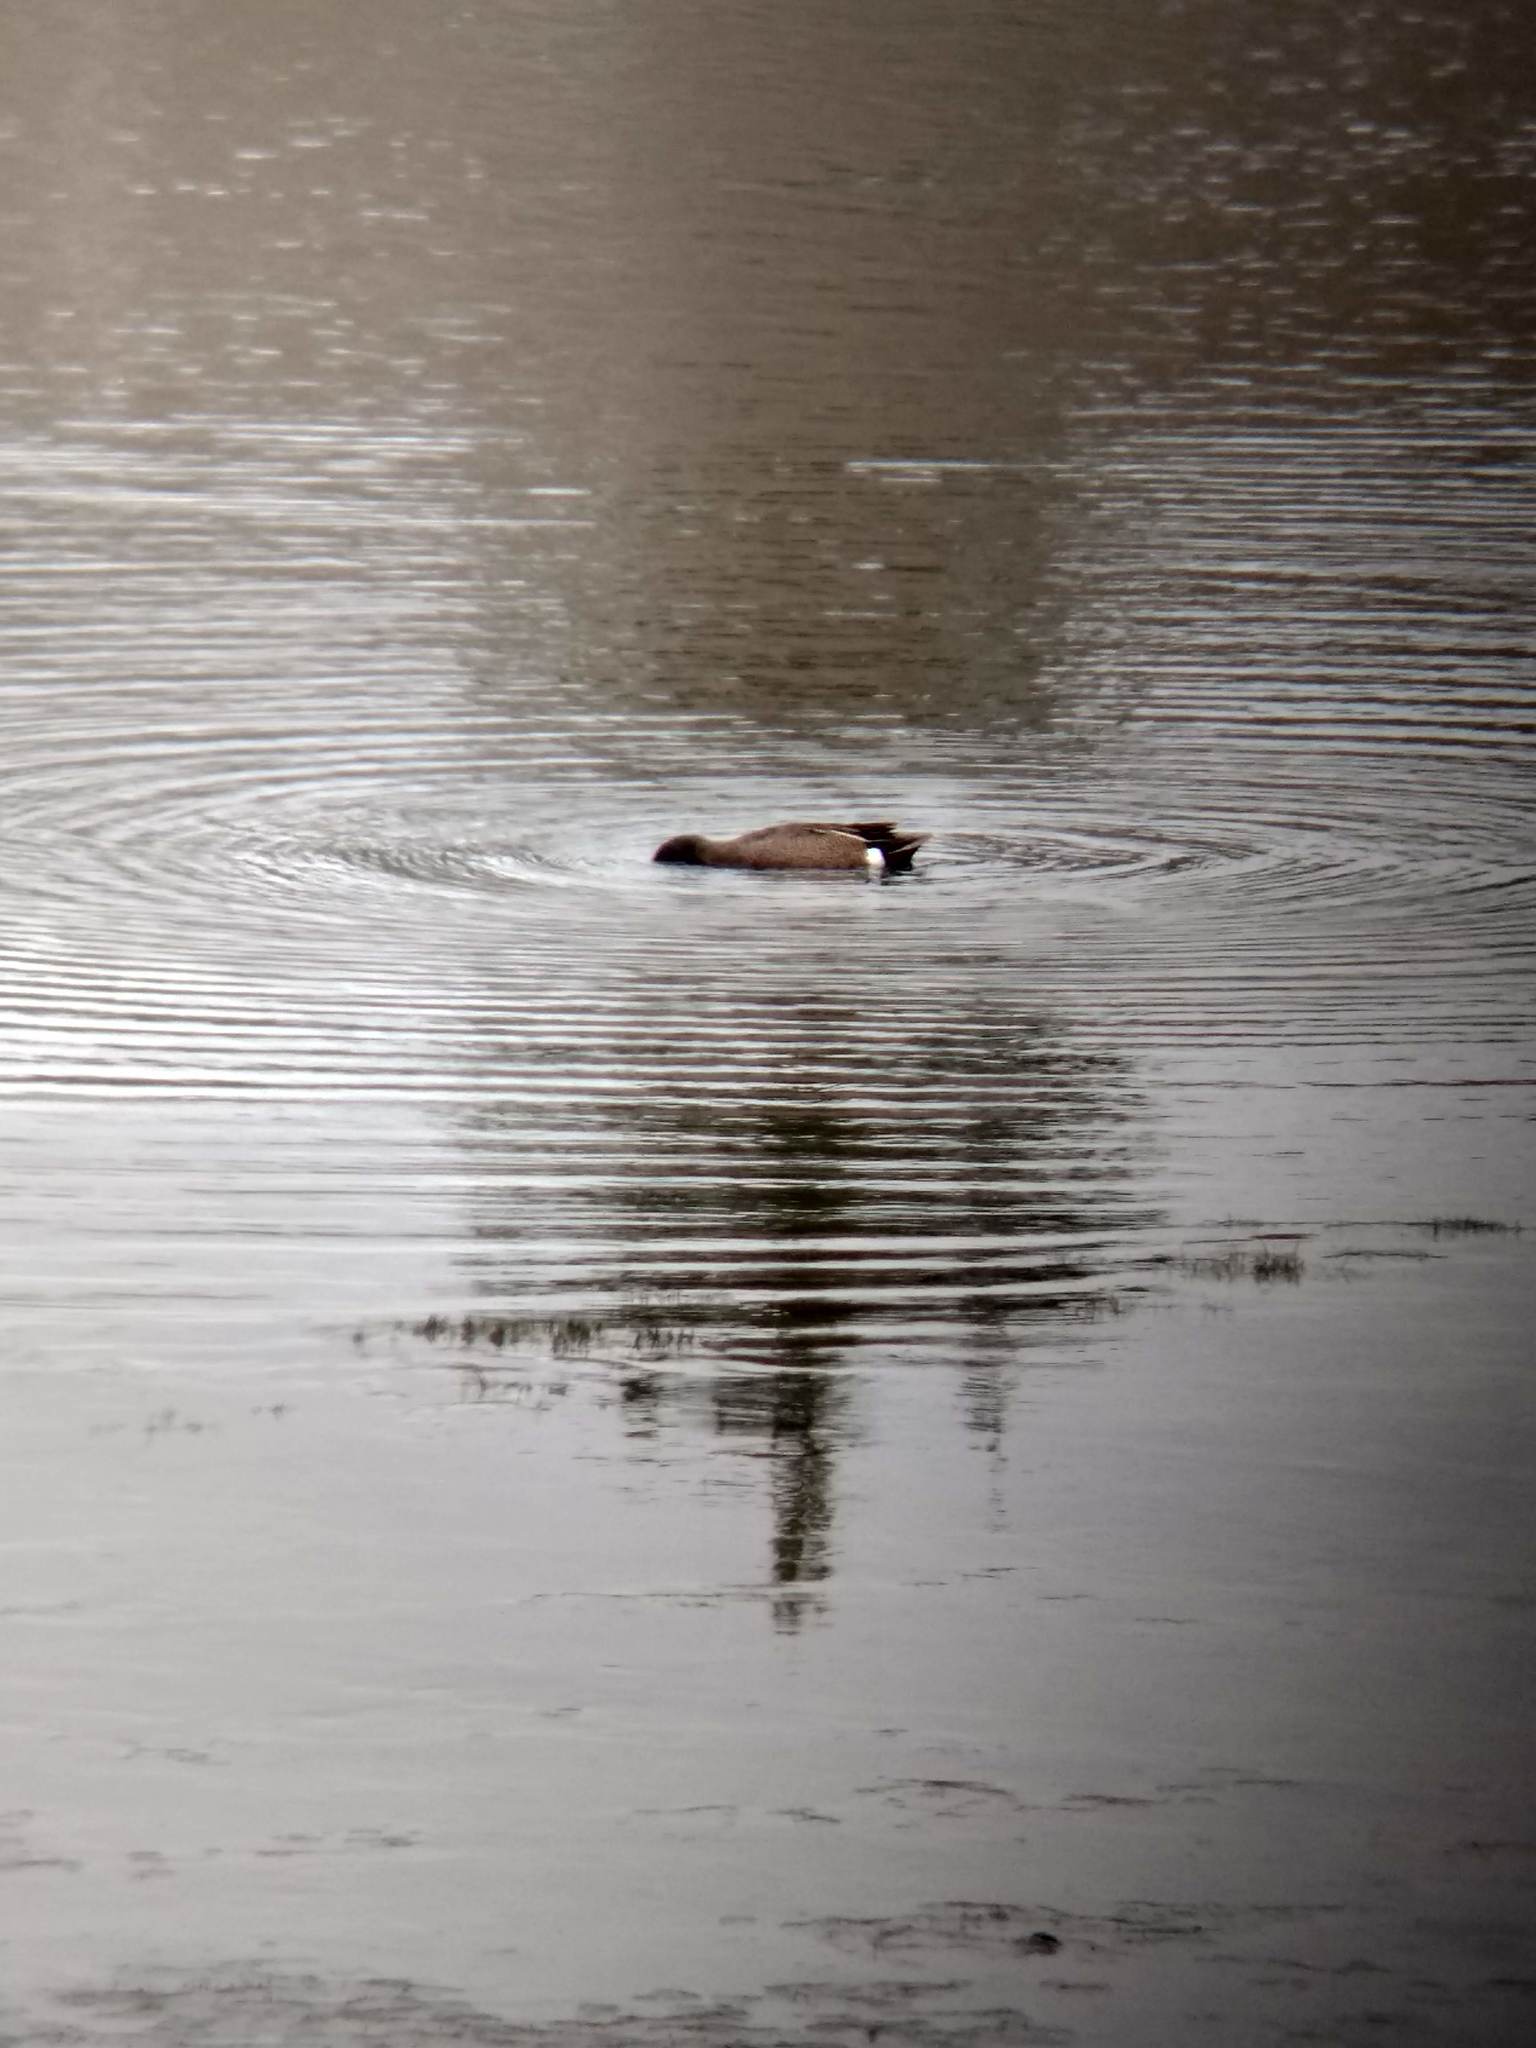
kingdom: Animalia
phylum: Chordata
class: Aves
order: Anseriformes
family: Anatidae
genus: Spatula
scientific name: Spatula discors
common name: Blue-winged teal
